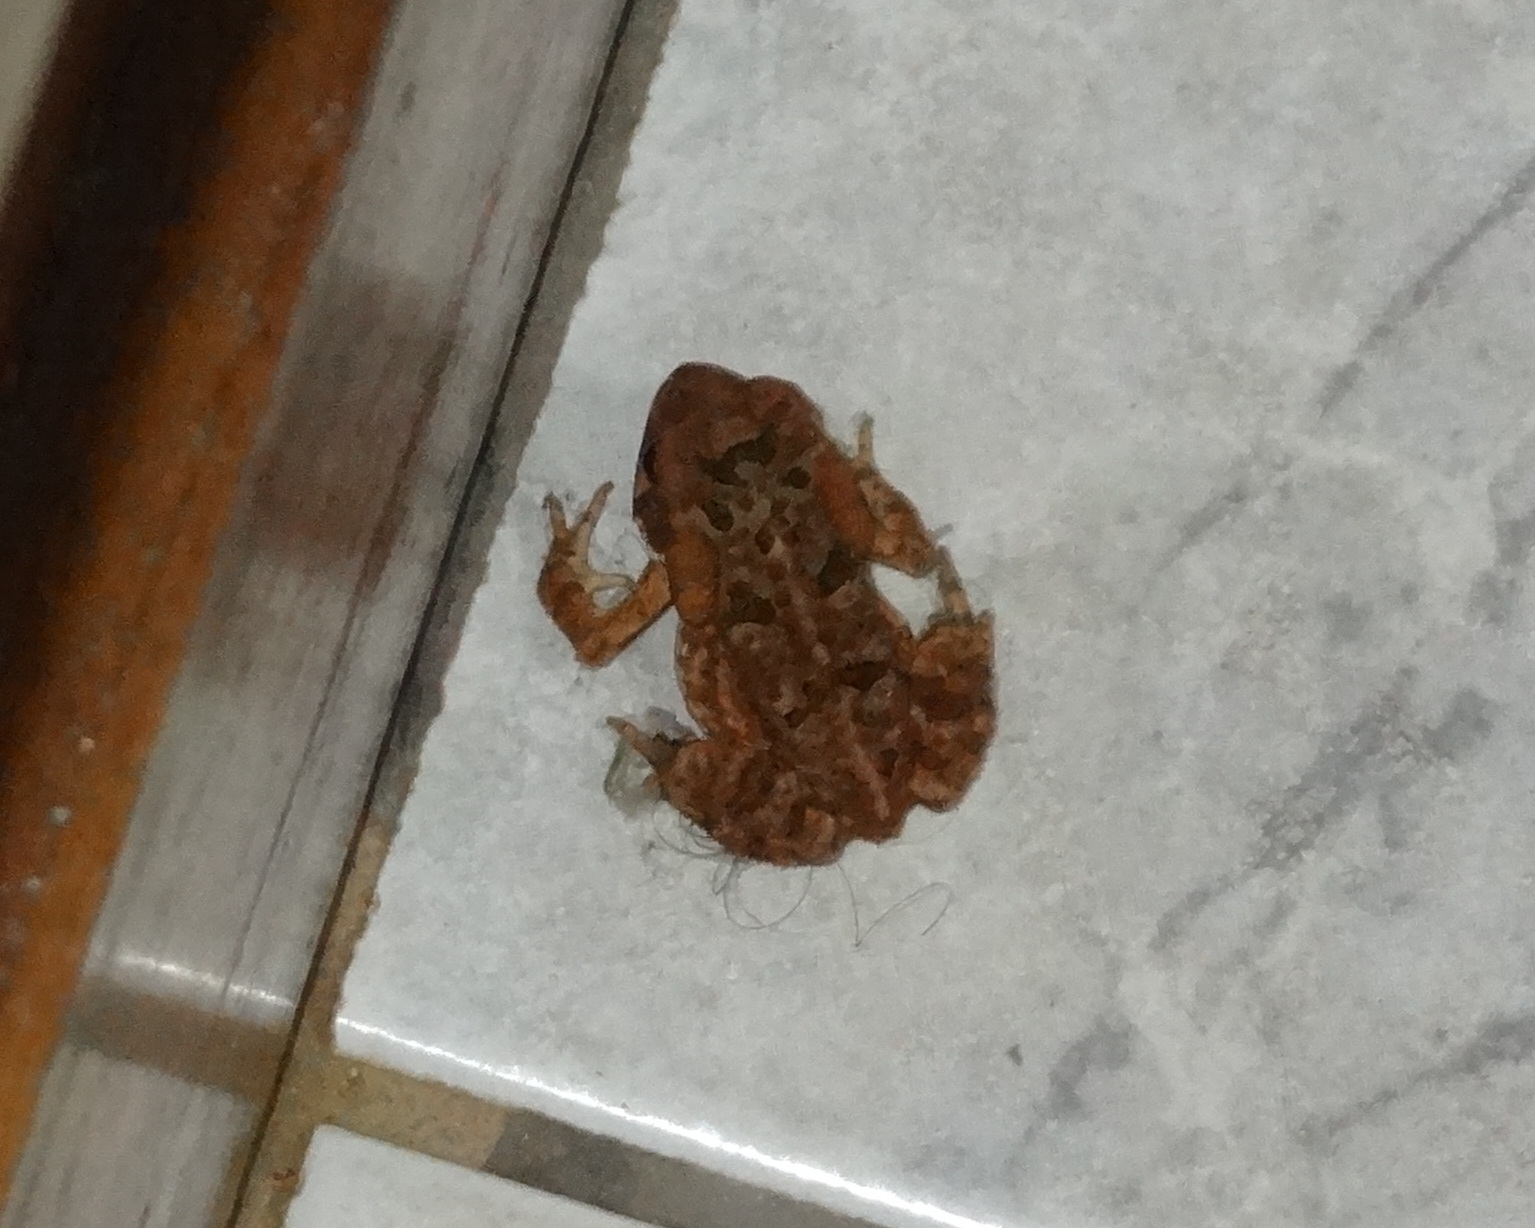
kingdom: Animalia
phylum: Chordata
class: Amphibia
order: Anura
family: Bufonidae
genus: Rhinella
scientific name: Rhinella icterica
